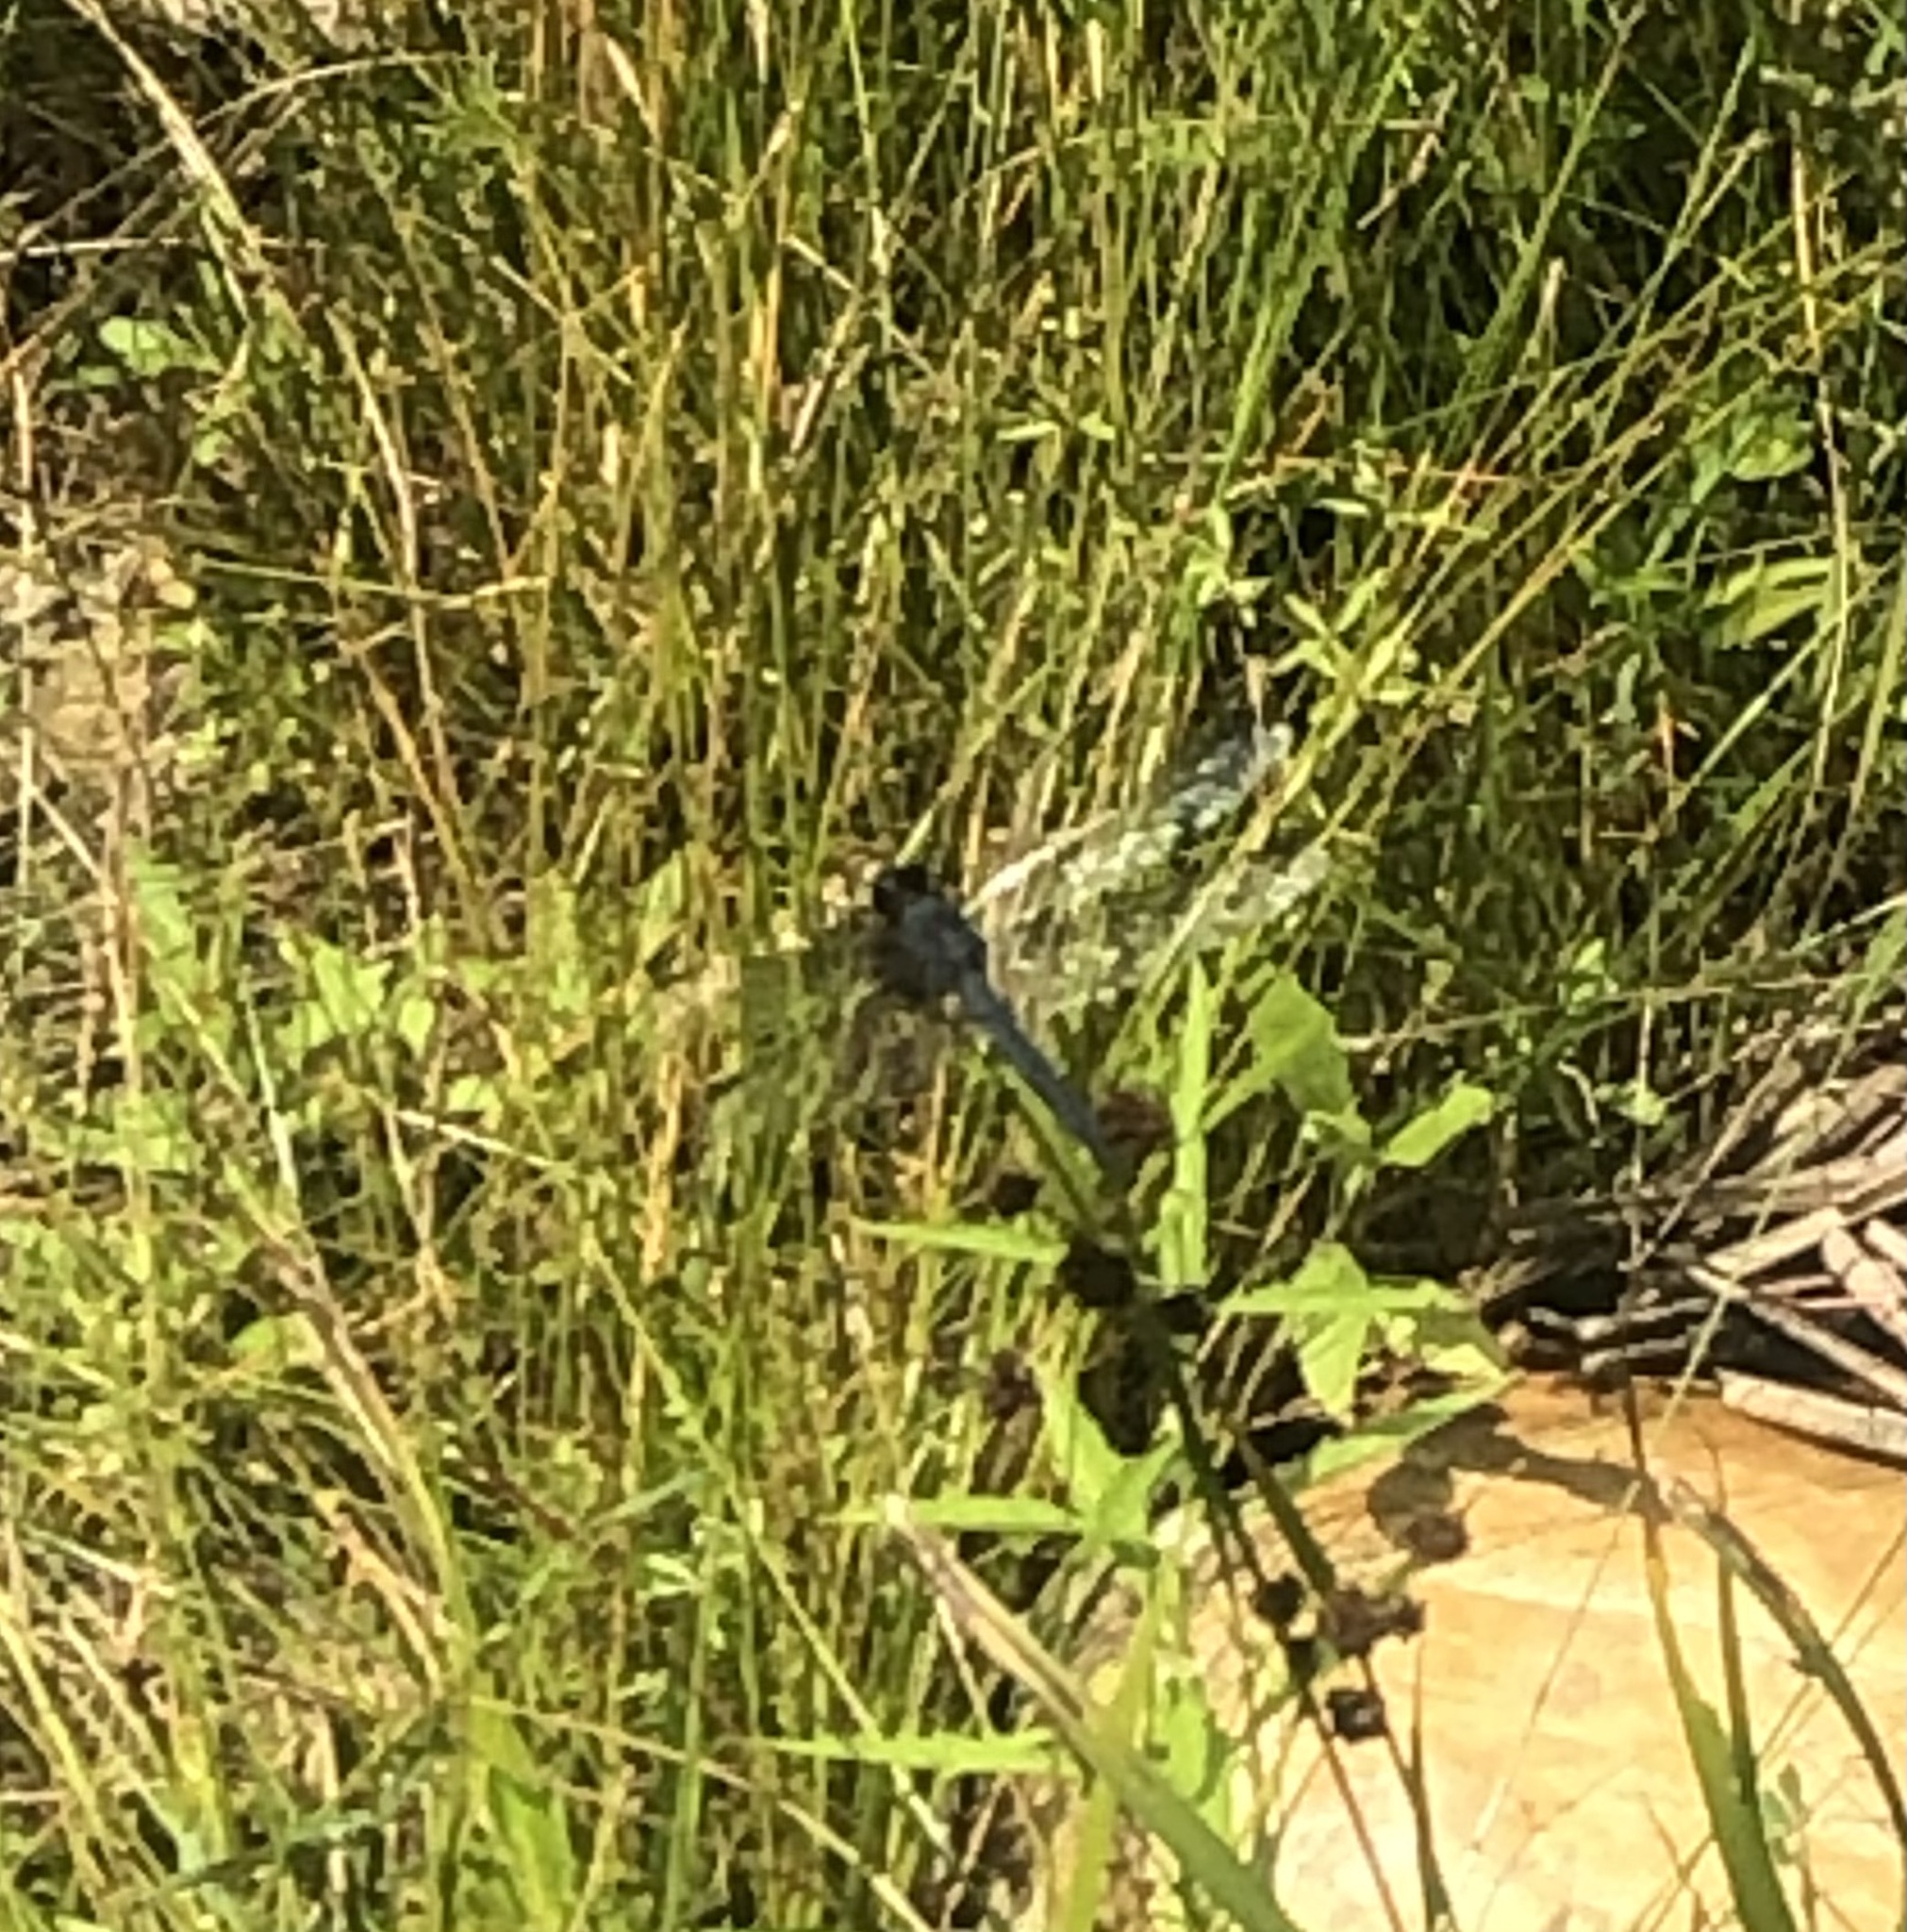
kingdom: Animalia
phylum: Arthropoda
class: Insecta
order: Odonata
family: Libellulidae
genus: Libellula
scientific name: Libellula incesta
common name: Slaty skimmer
